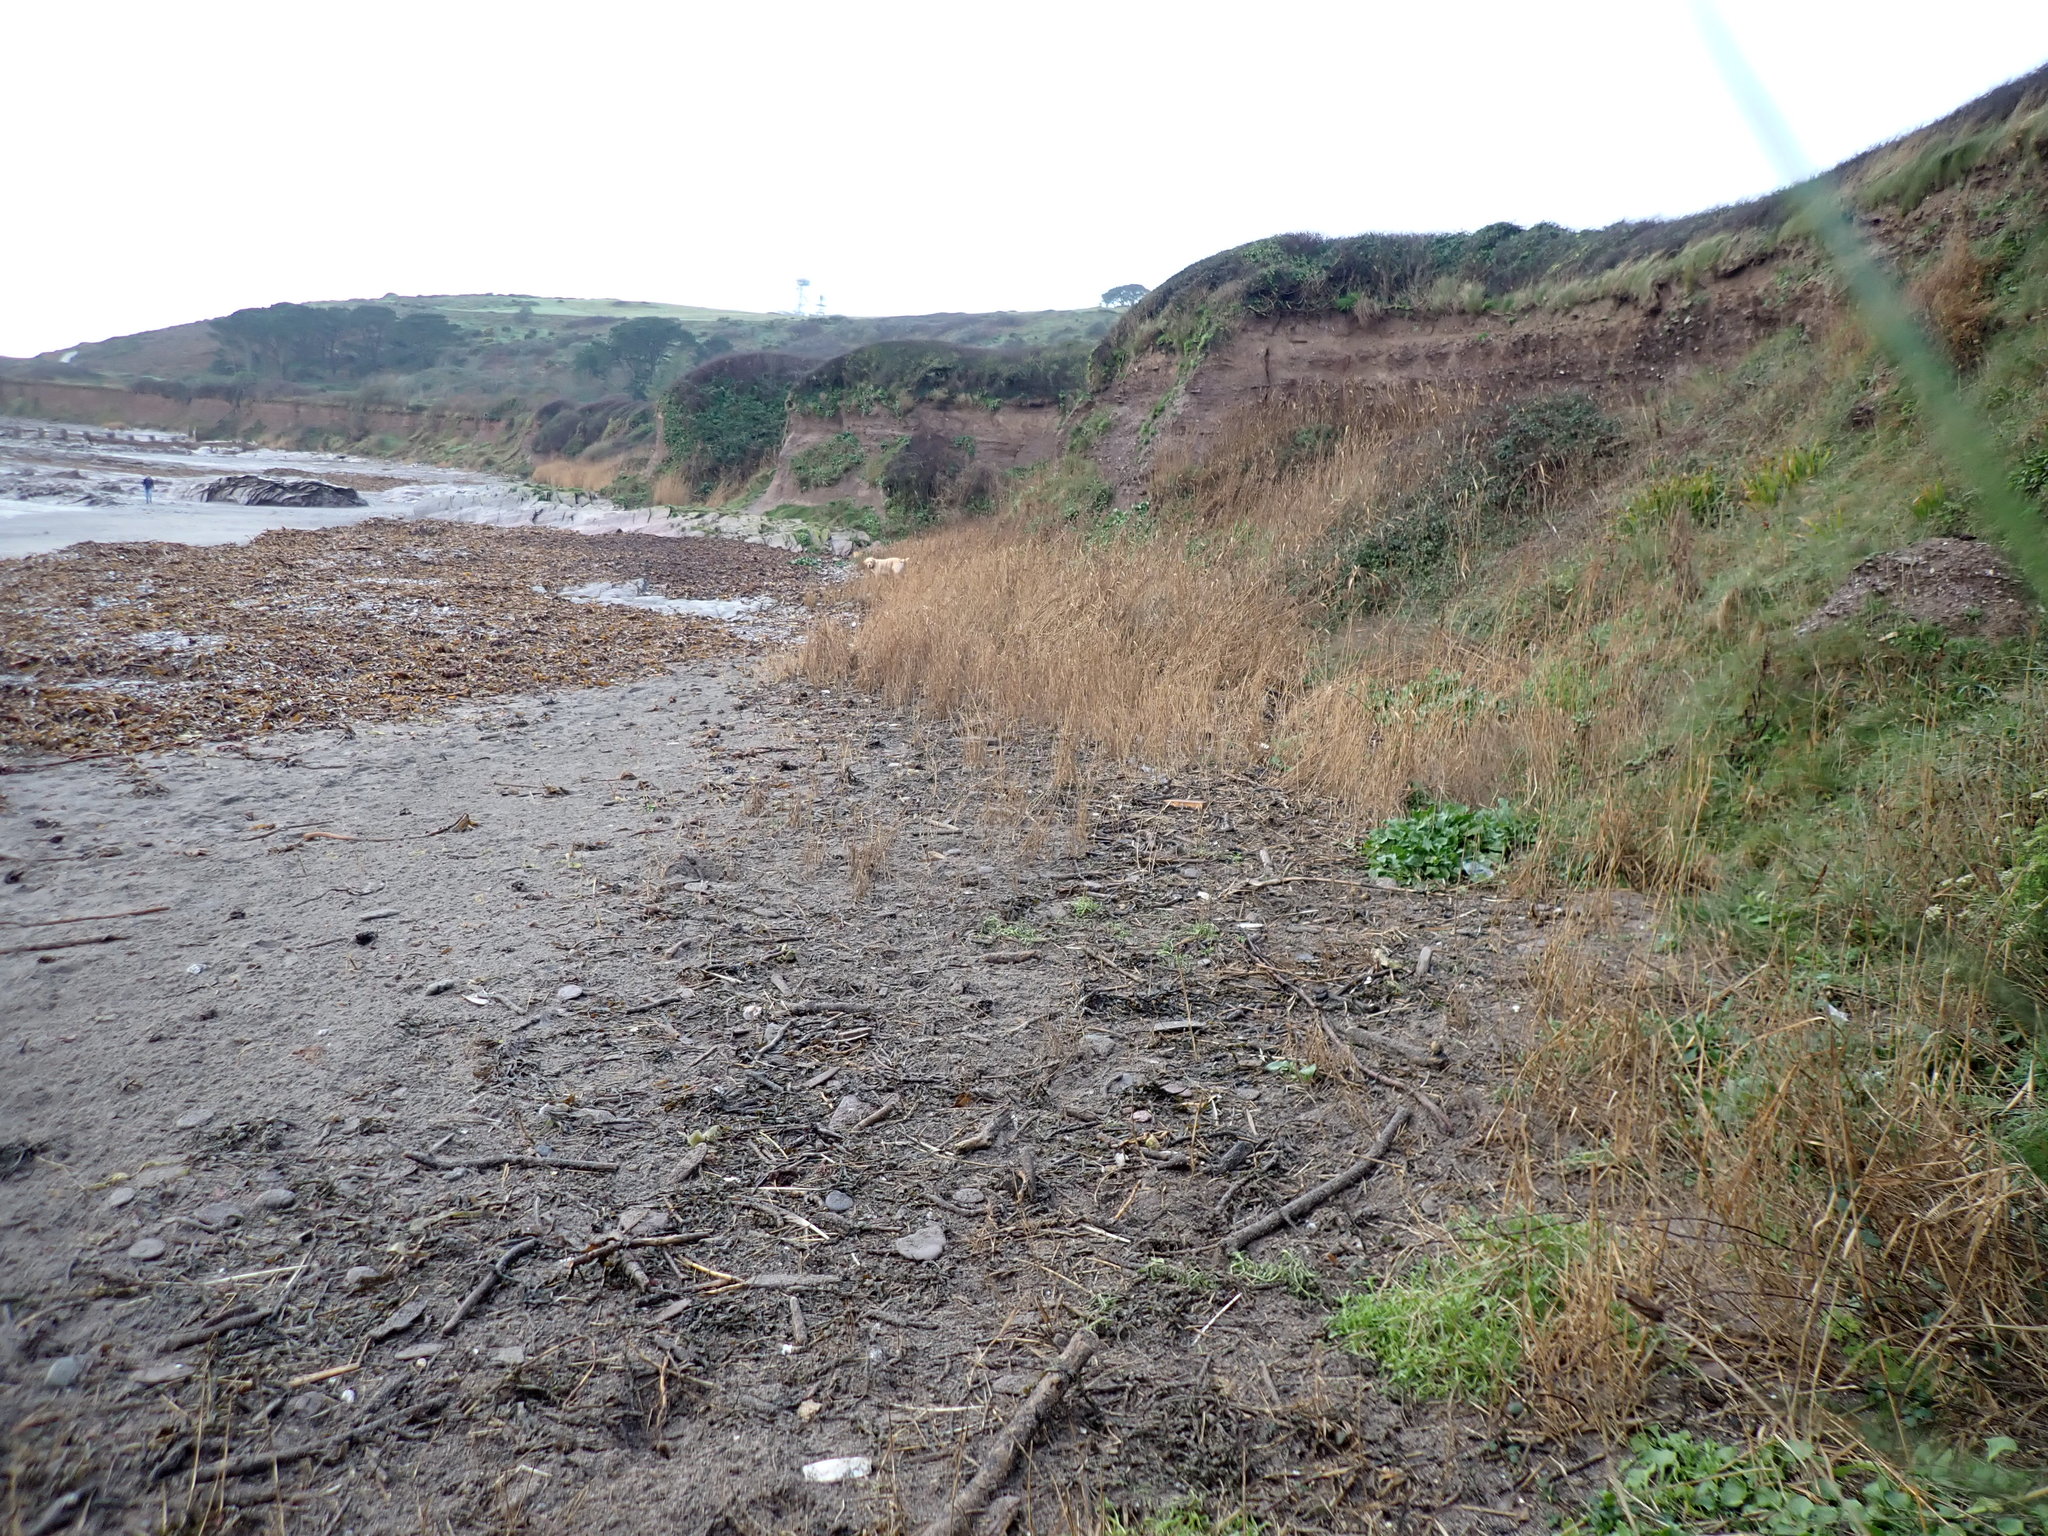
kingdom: Plantae
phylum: Tracheophyta
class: Magnoliopsida
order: Brassicales
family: Brassicaceae
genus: Crambe
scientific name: Crambe maritima
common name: Sea-kale
